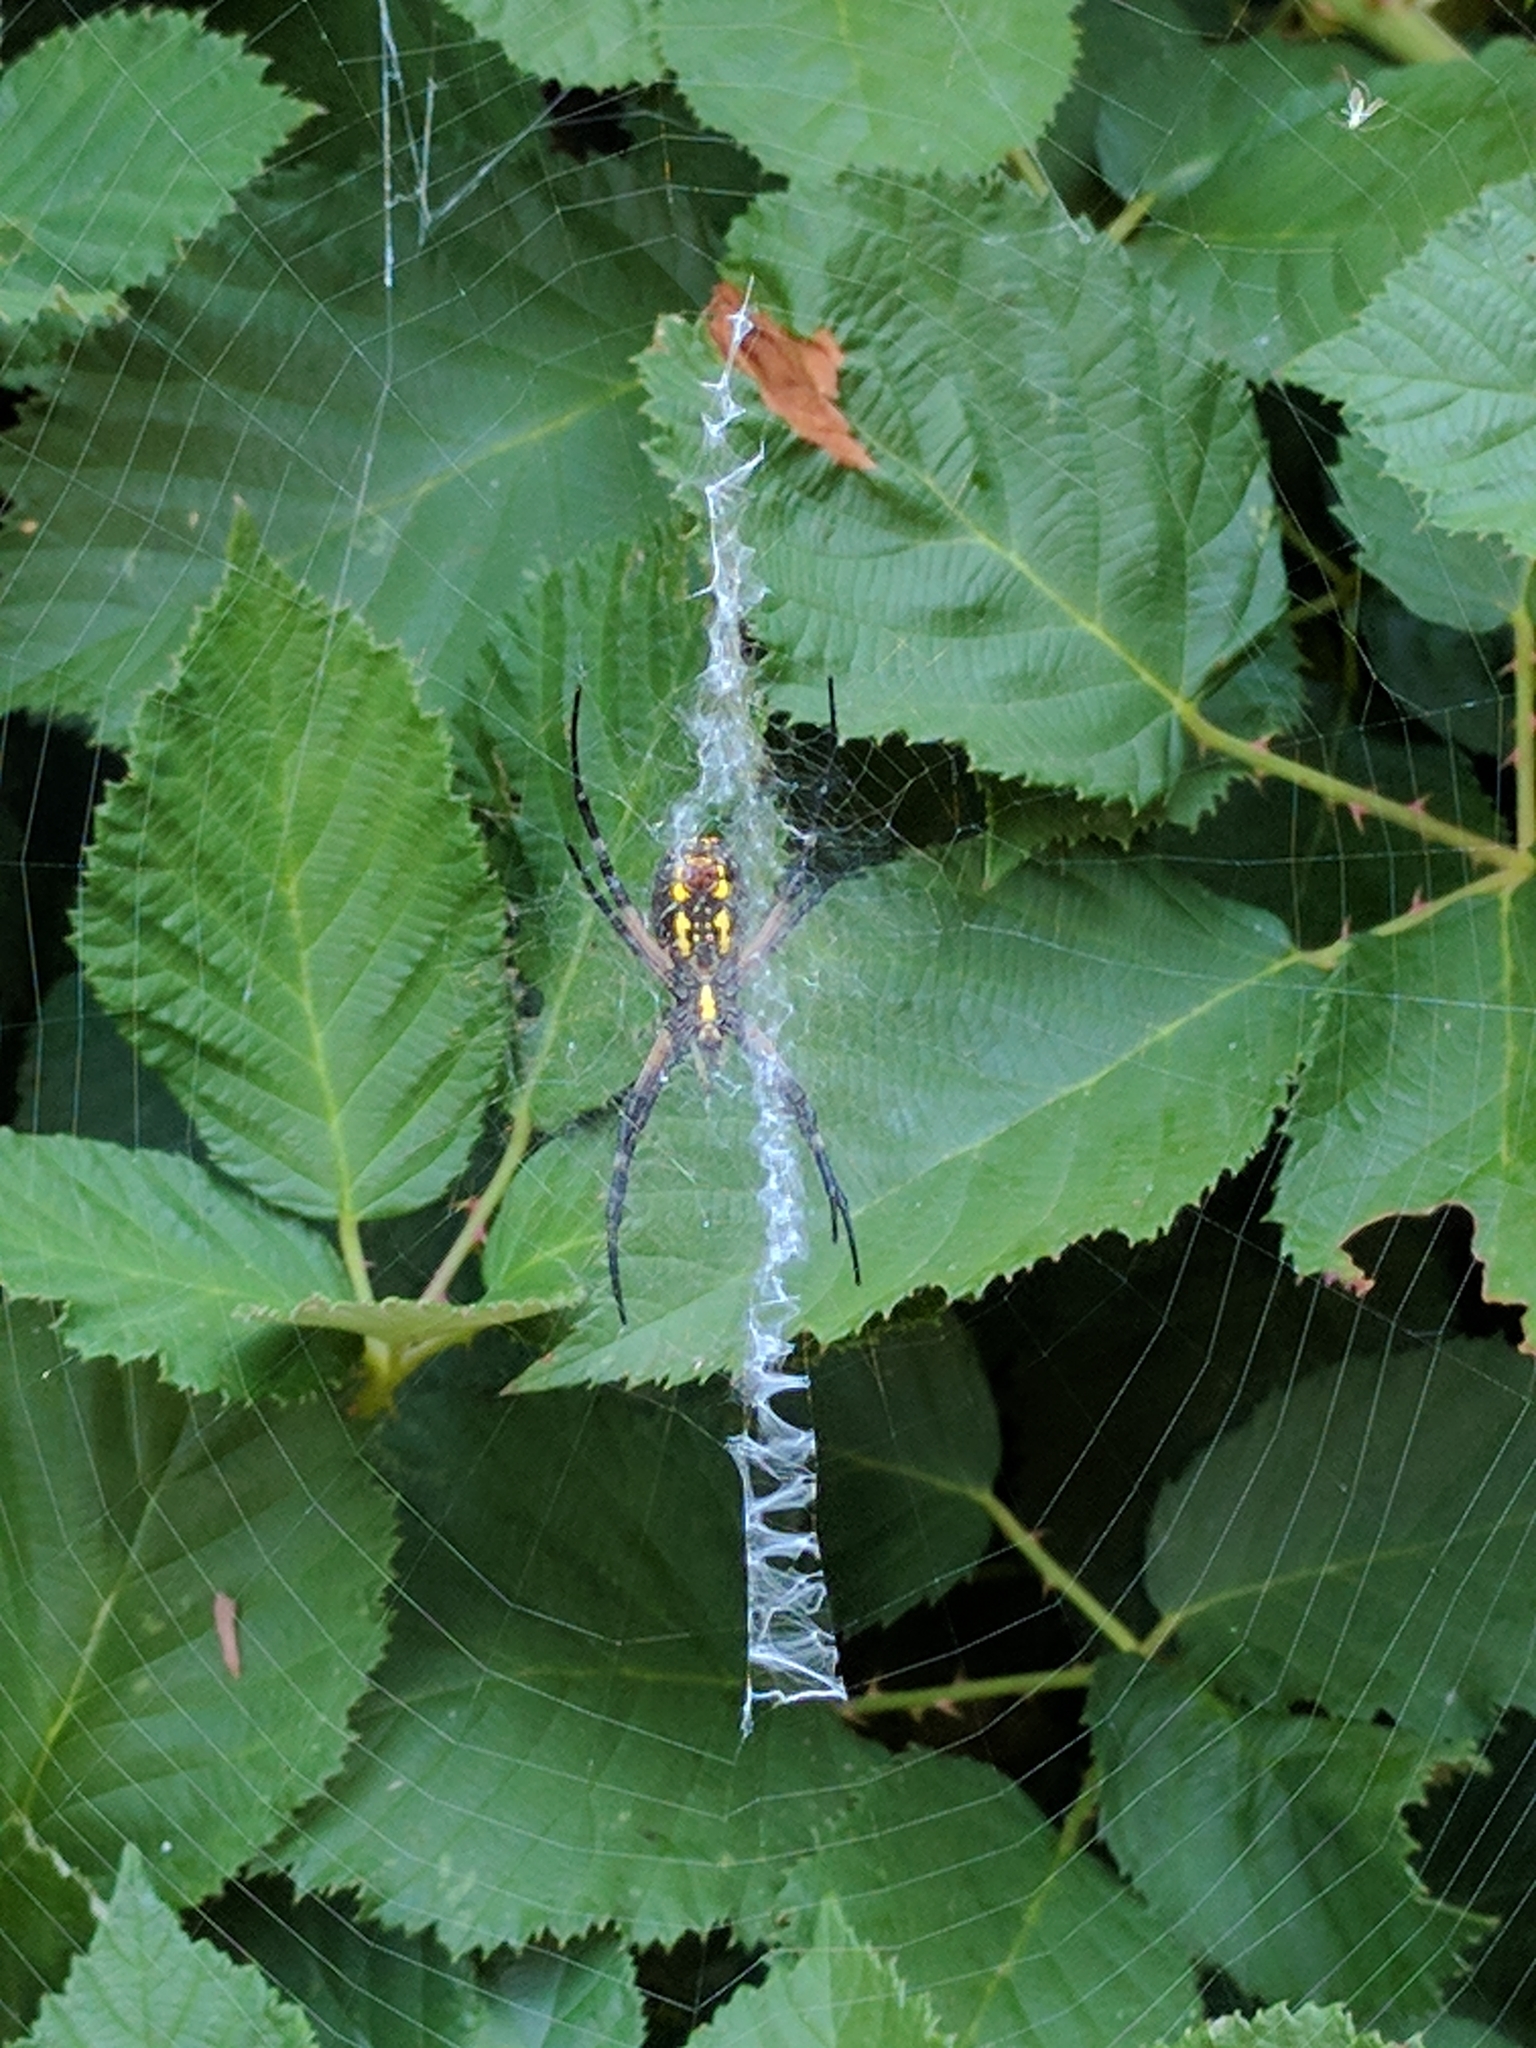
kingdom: Animalia
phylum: Arthropoda
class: Arachnida
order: Araneae
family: Araneidae
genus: Argiope
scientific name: Argiope aurantia
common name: Orb weavers
